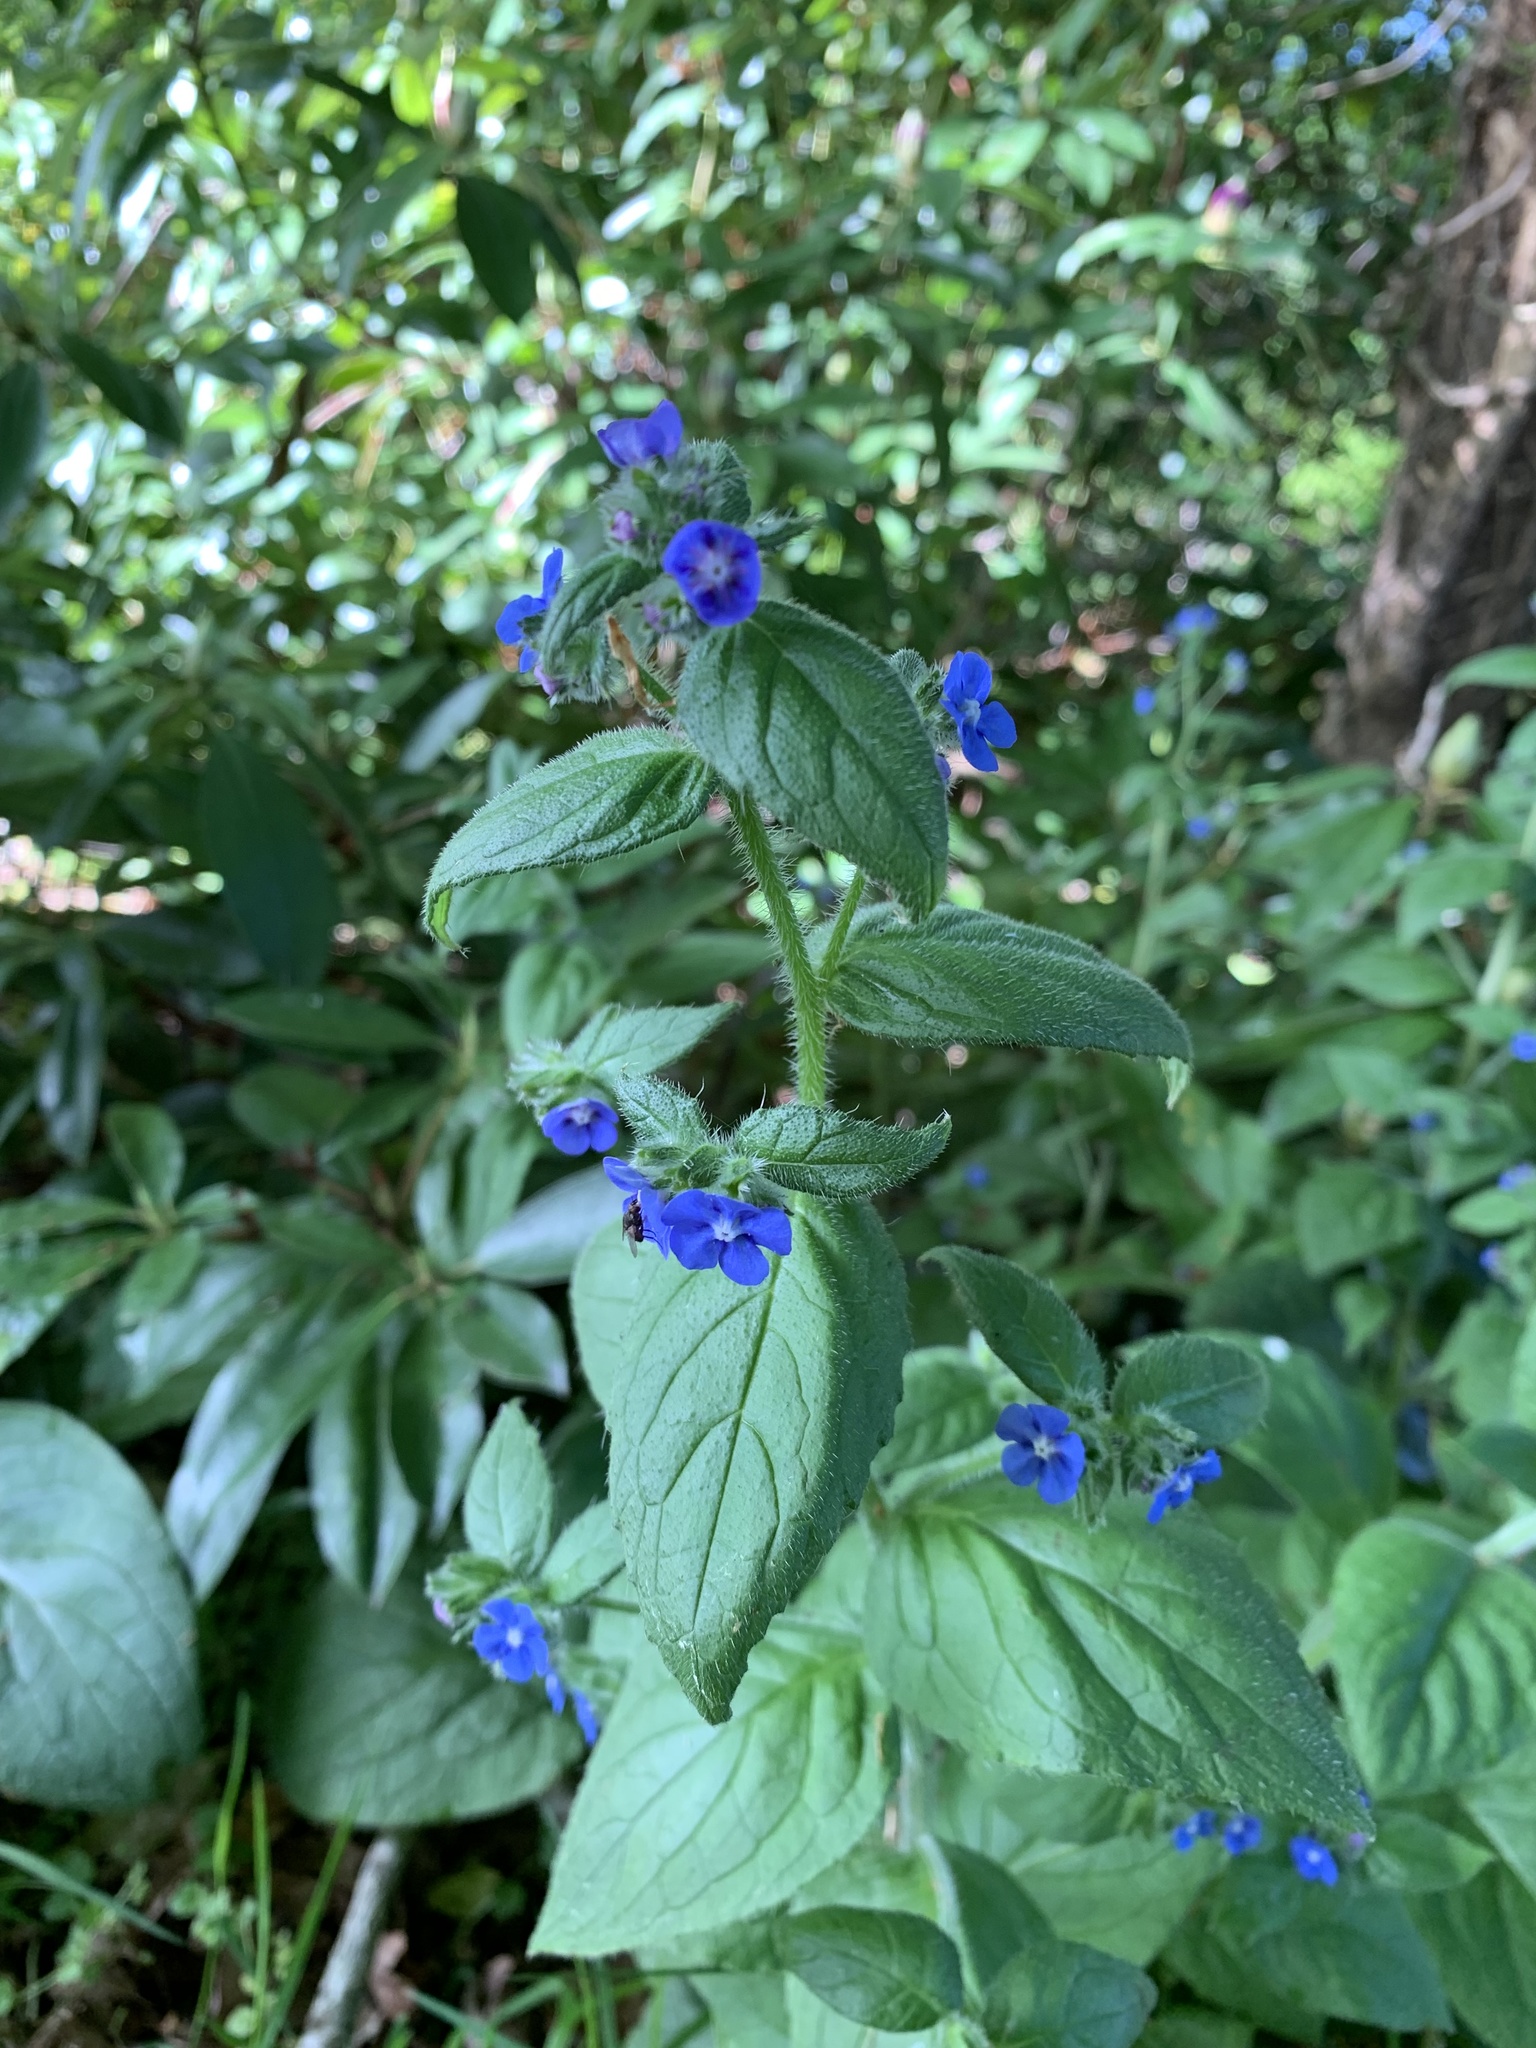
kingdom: Plantae
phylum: Tracheophyta
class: Magnoliopsida
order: Boraginales
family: Boraginaceae
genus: Pentaglottis
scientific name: Pentaglottis sempervirens
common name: Green alkanet
